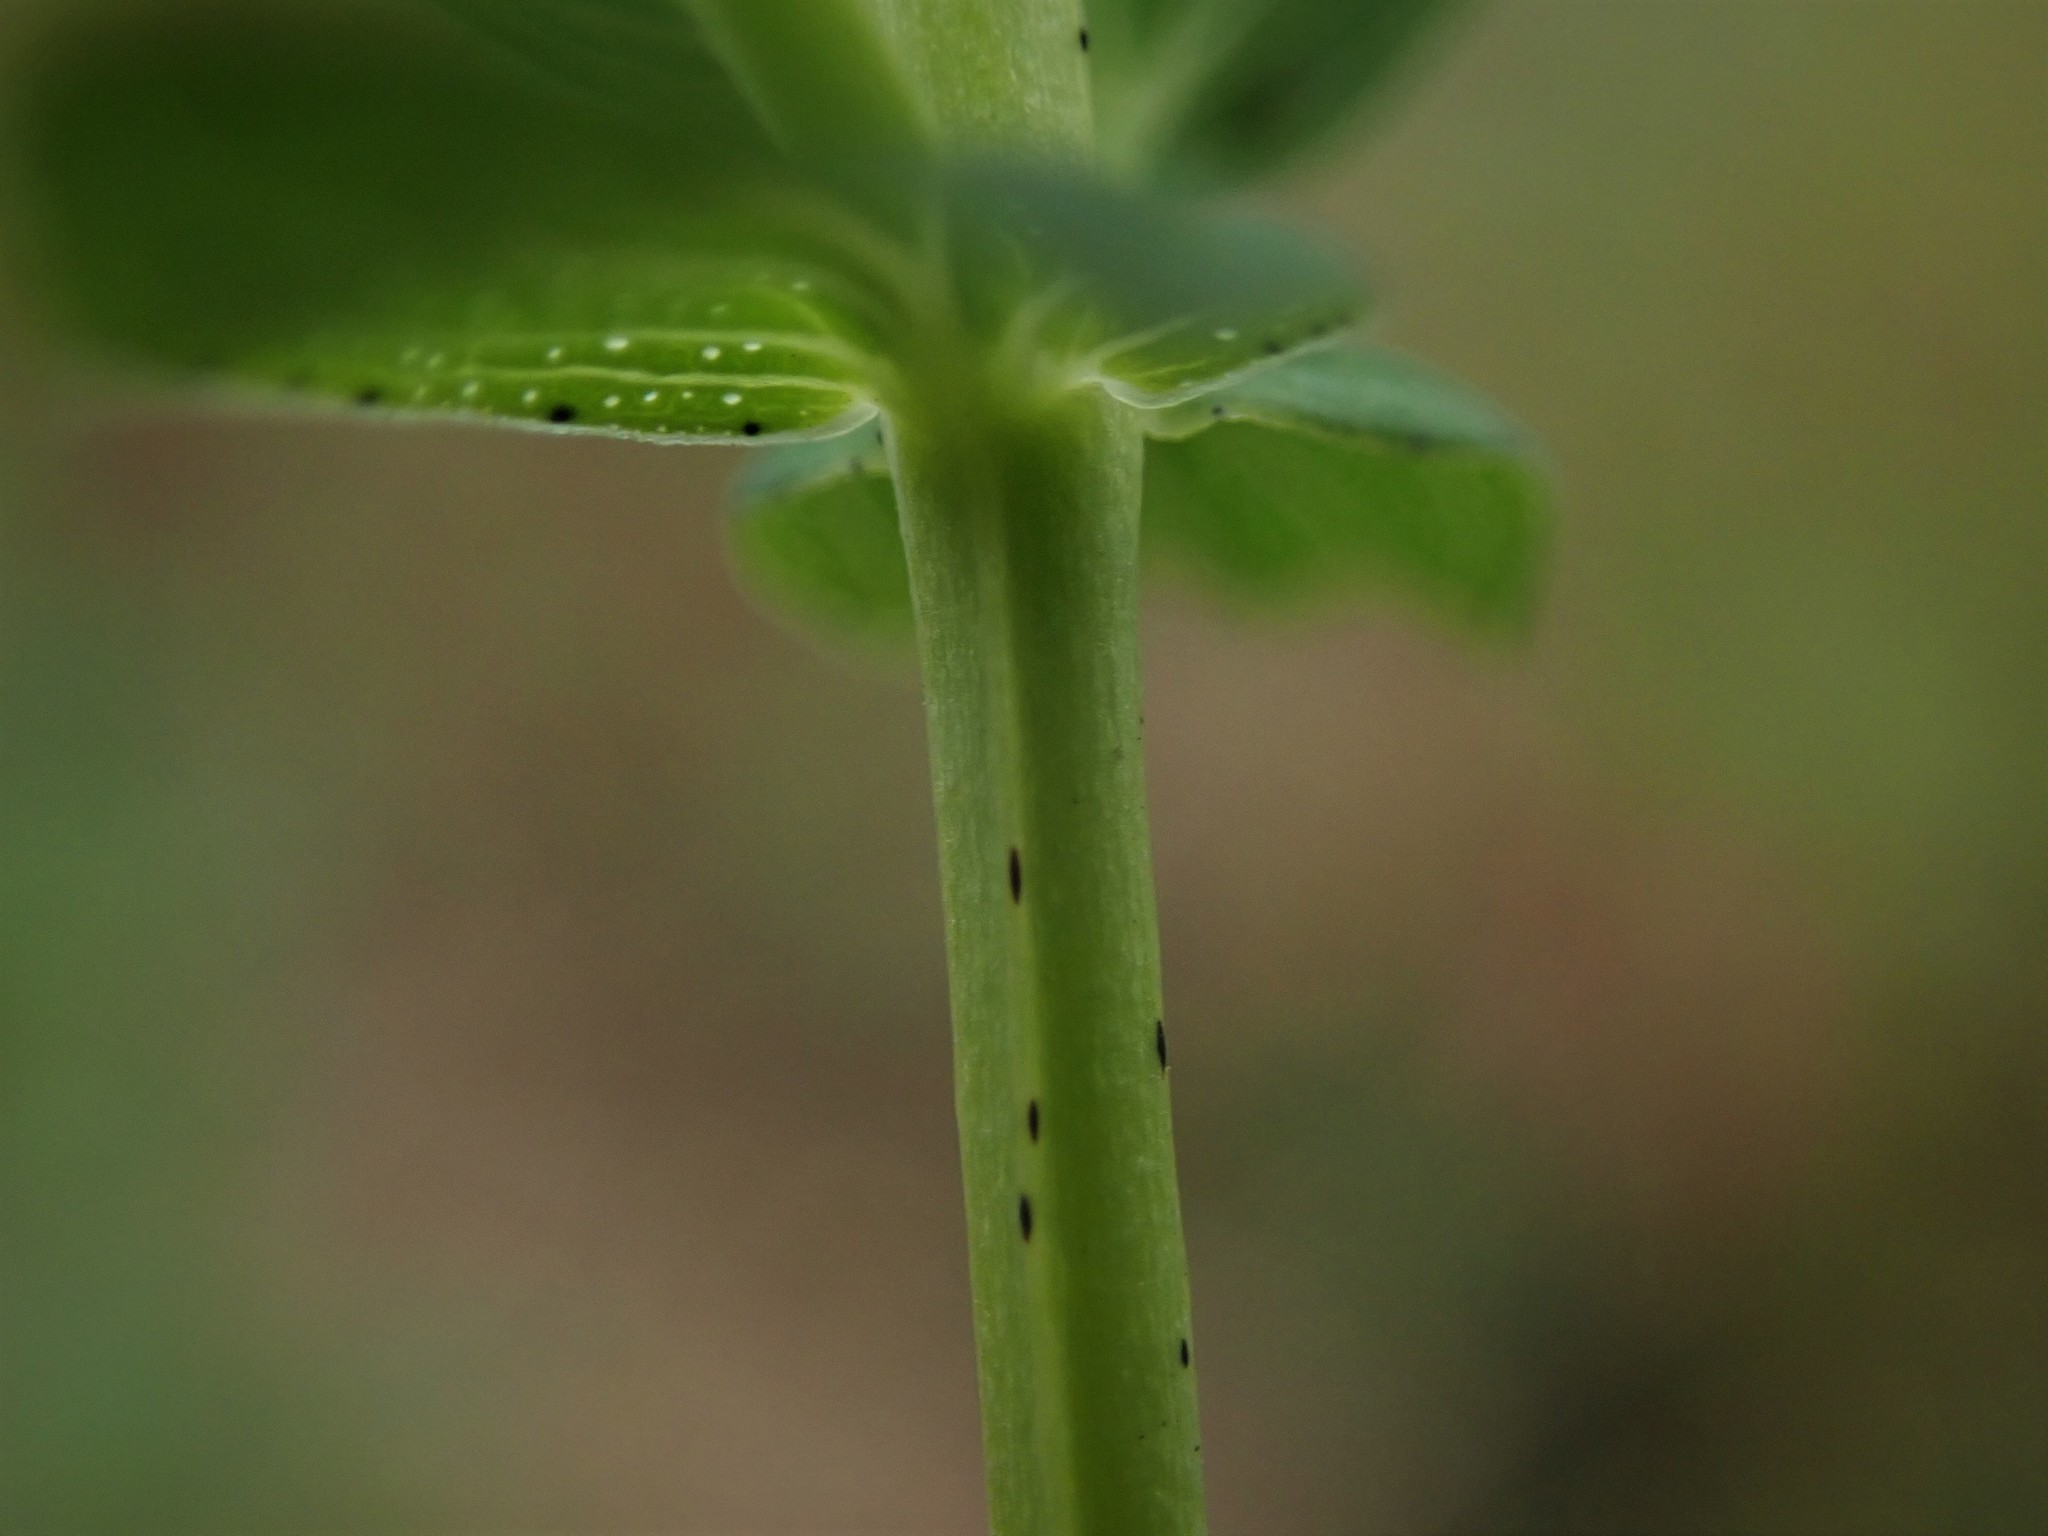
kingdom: Plantae
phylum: Tracheophyta
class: Magnoliopsida
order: Malpighiales
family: Hypericaceae
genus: Hypericum
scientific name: Hypericum perforatum
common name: Common st. johnswort
